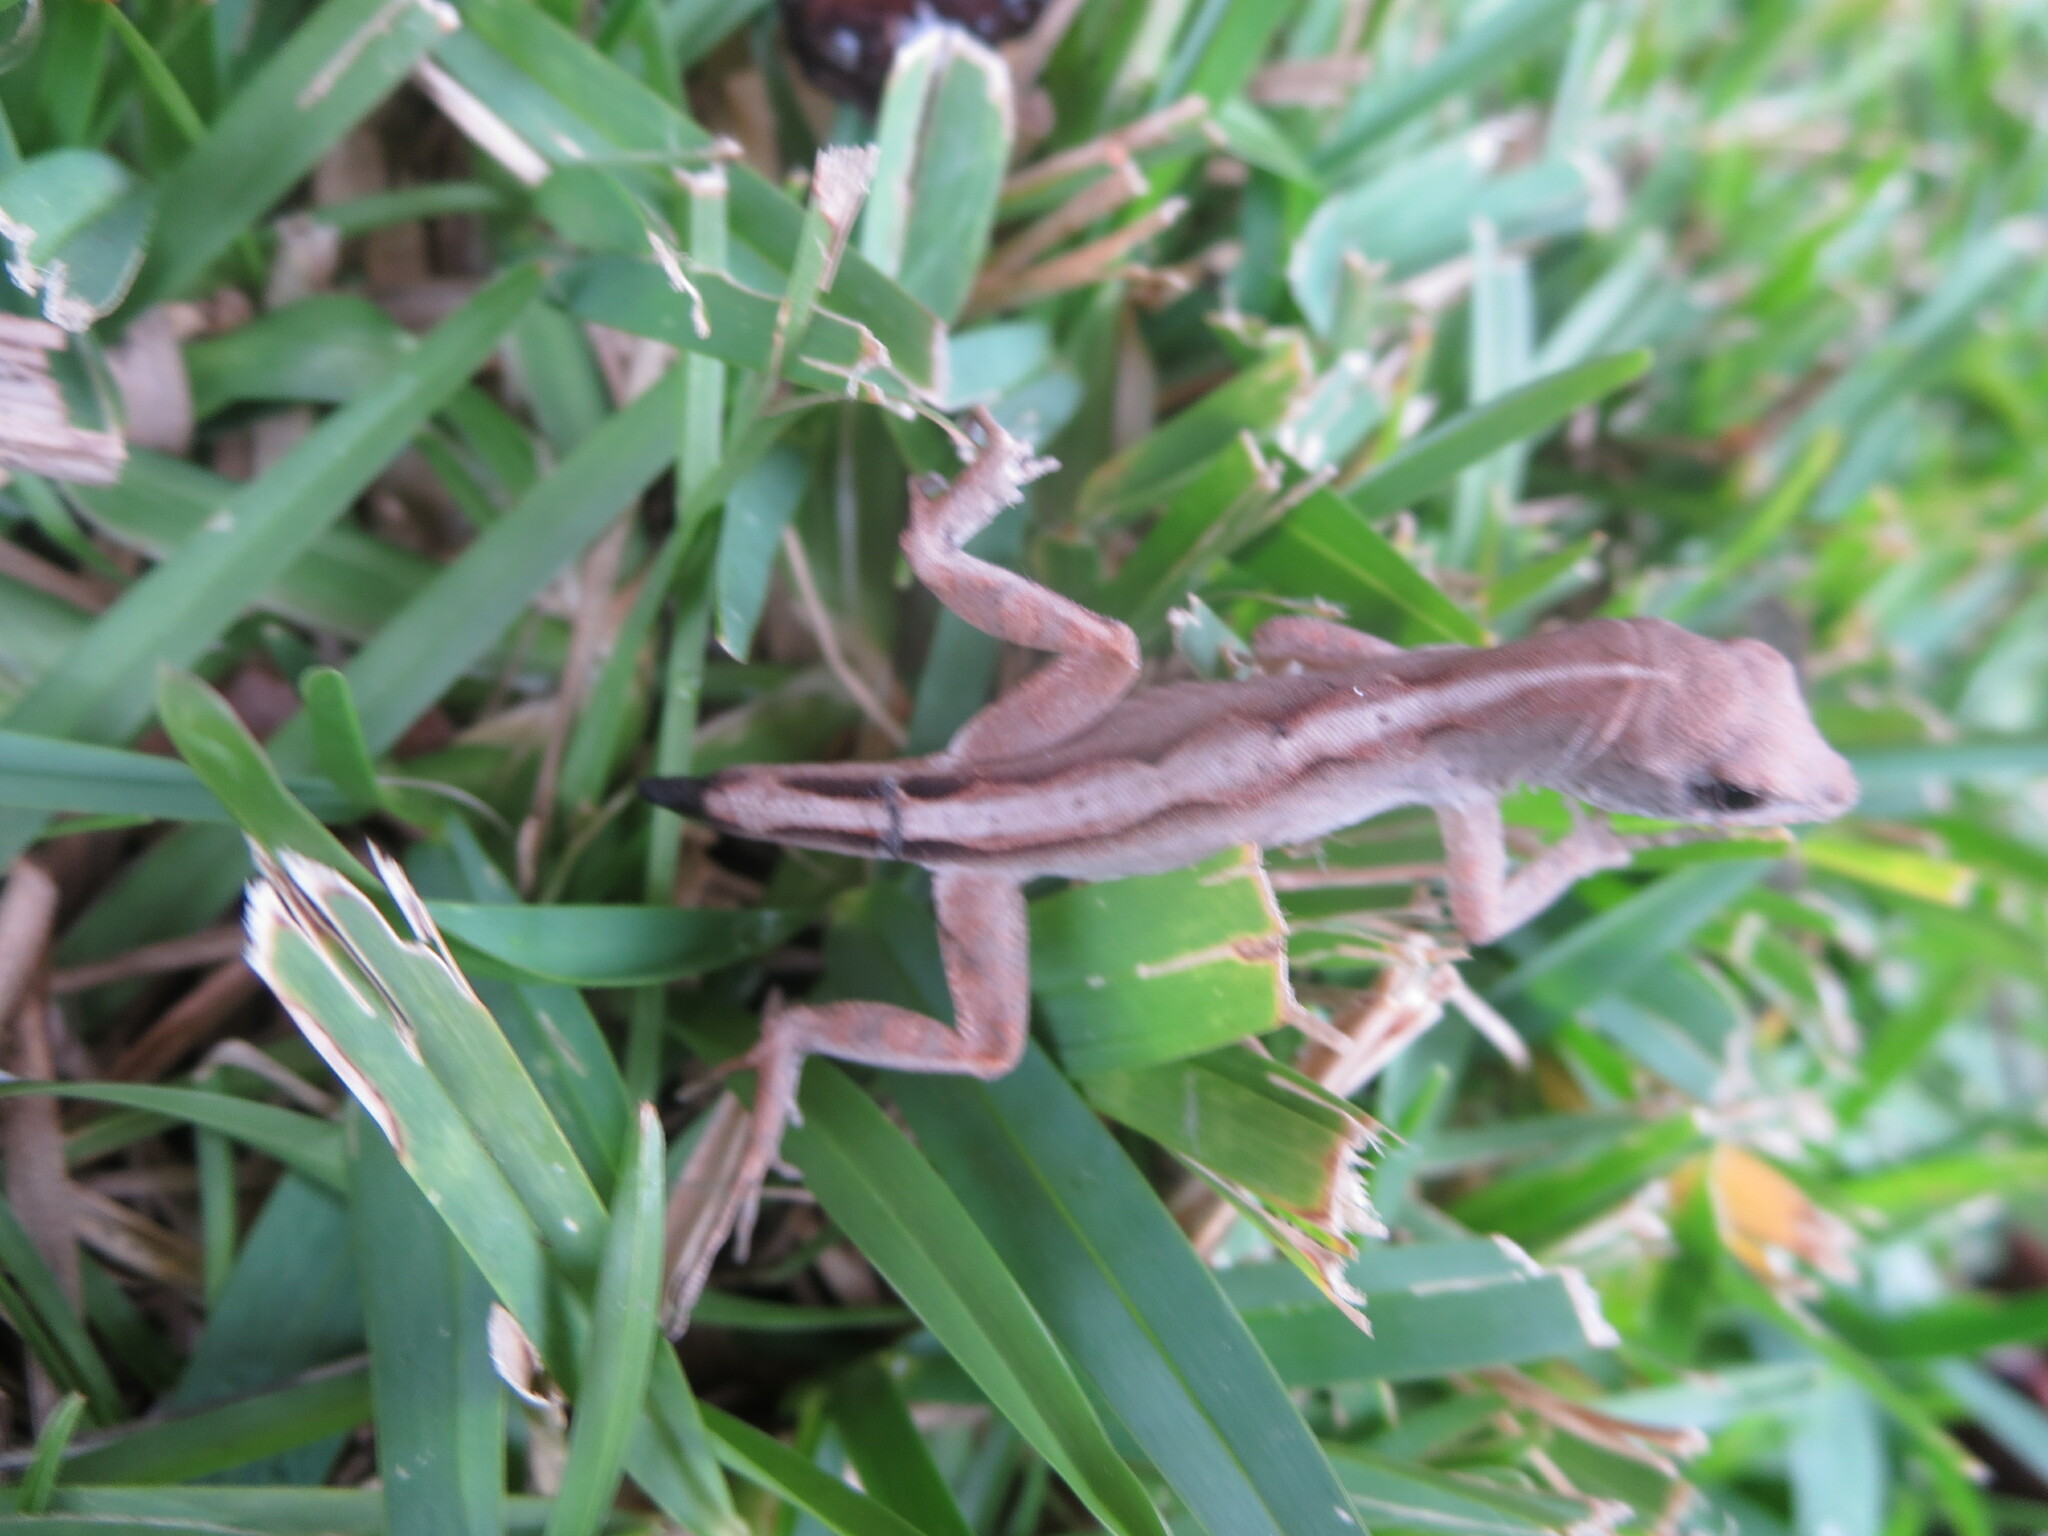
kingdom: Animalia
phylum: Chordata
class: Squamata
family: Dactyloidae
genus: Anolis
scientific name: Anolis sagrei
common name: Brown anole
